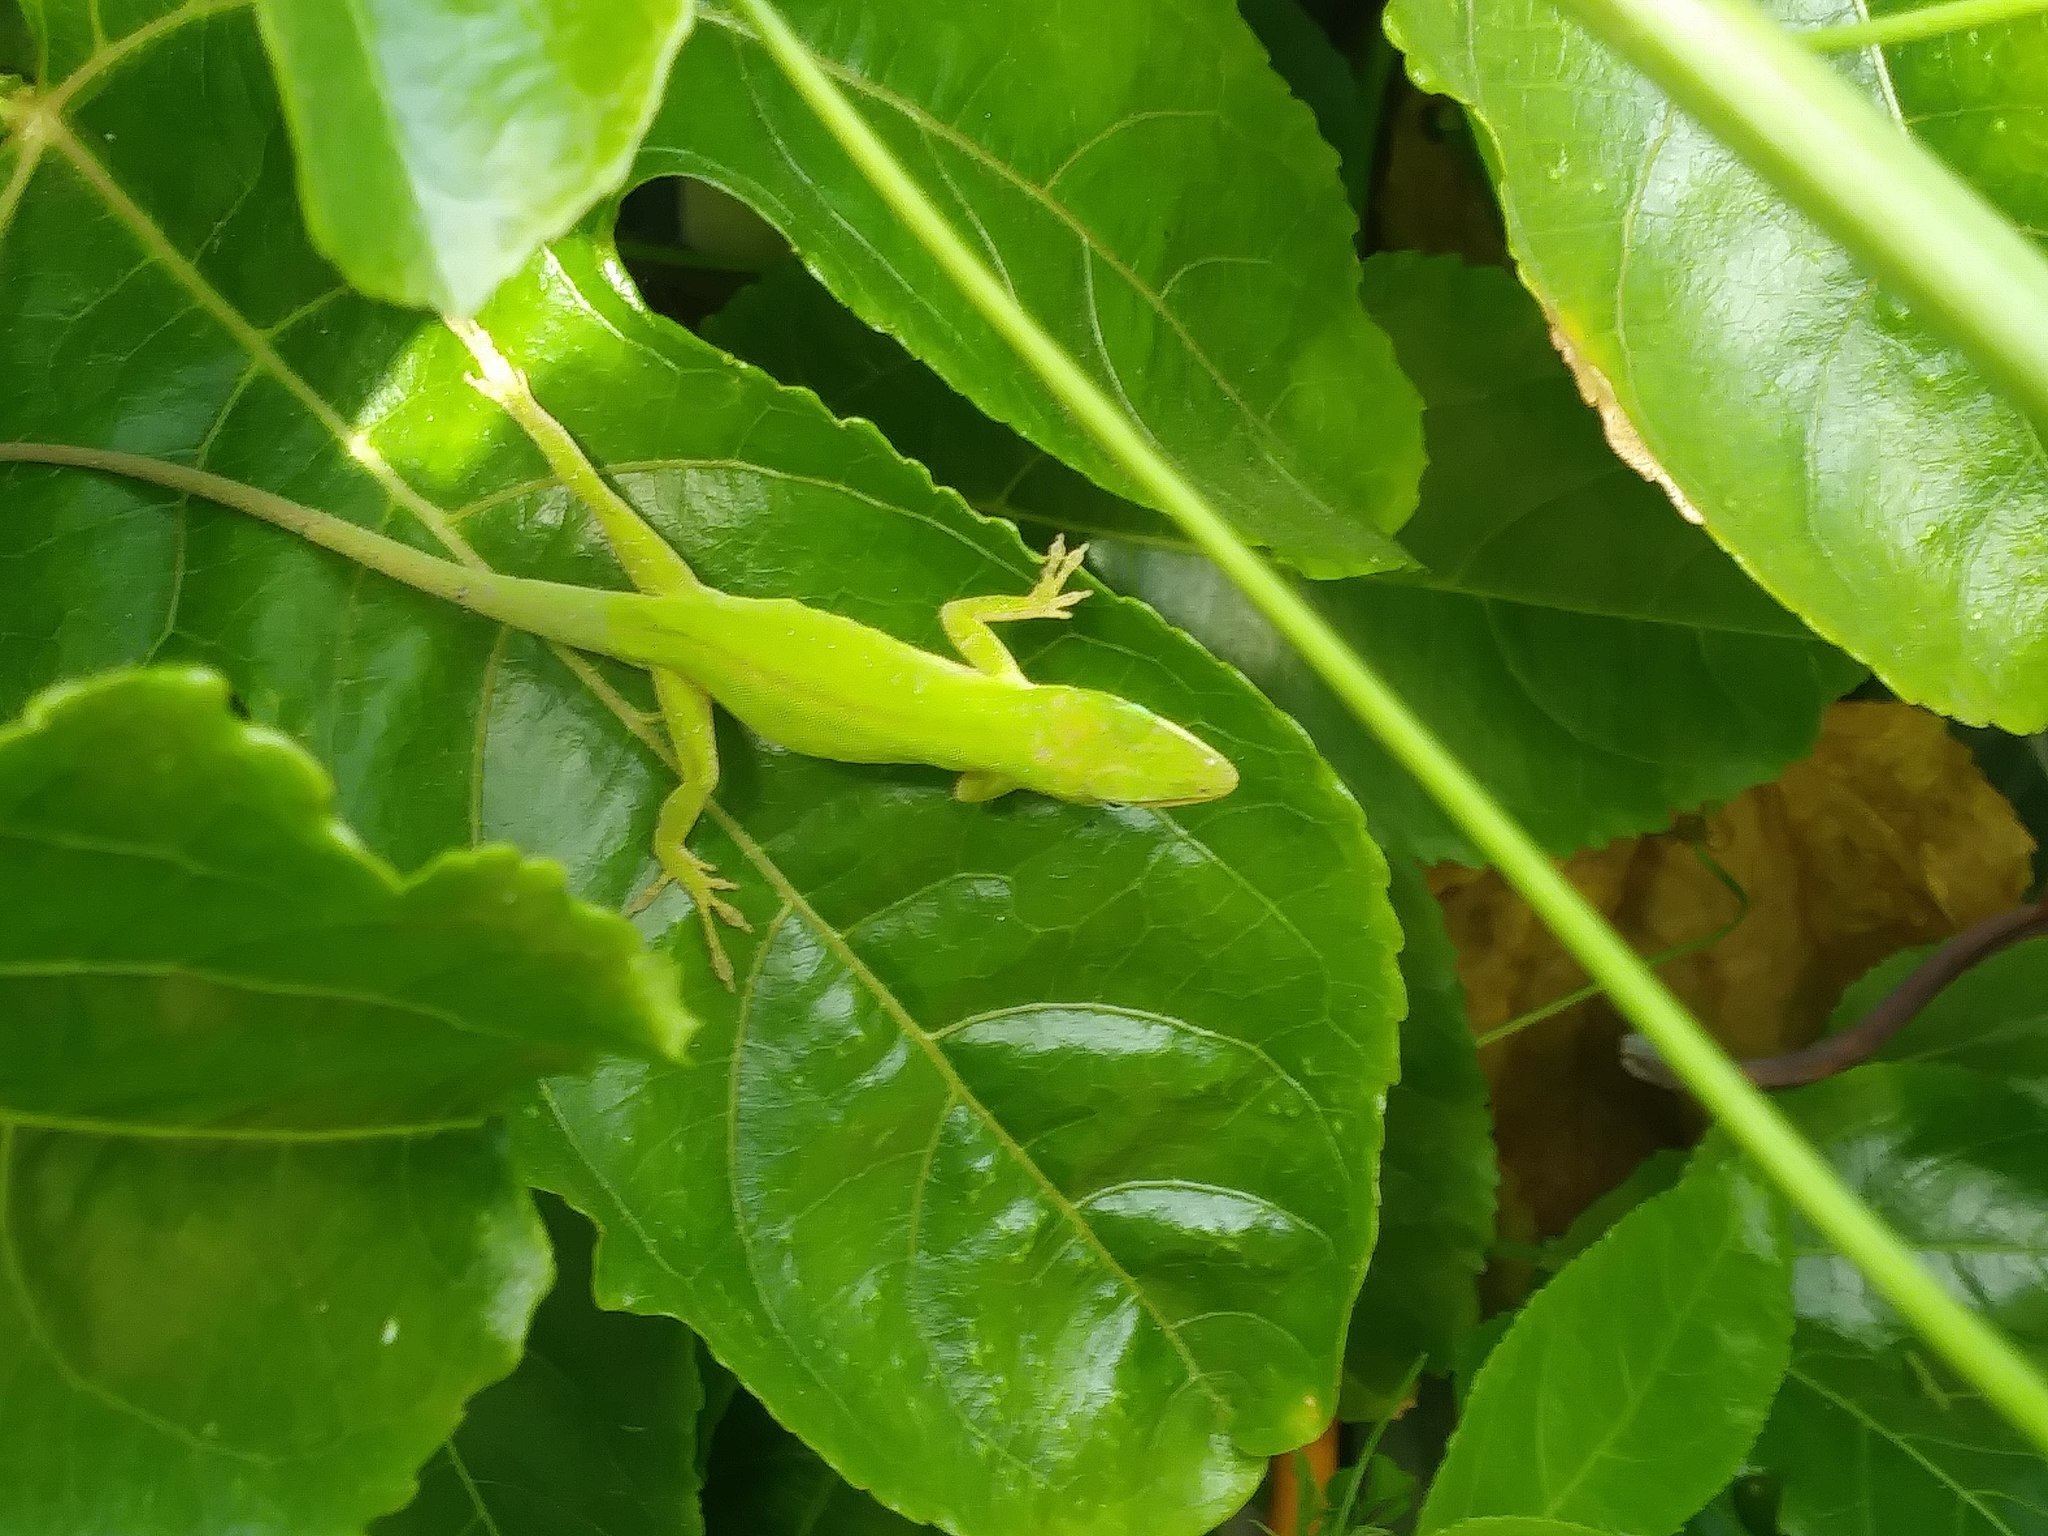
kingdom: Animalia
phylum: Chordata
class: Squamata
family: Dactyloidae
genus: Anolis
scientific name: Anolis carolinensis
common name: Green anole
